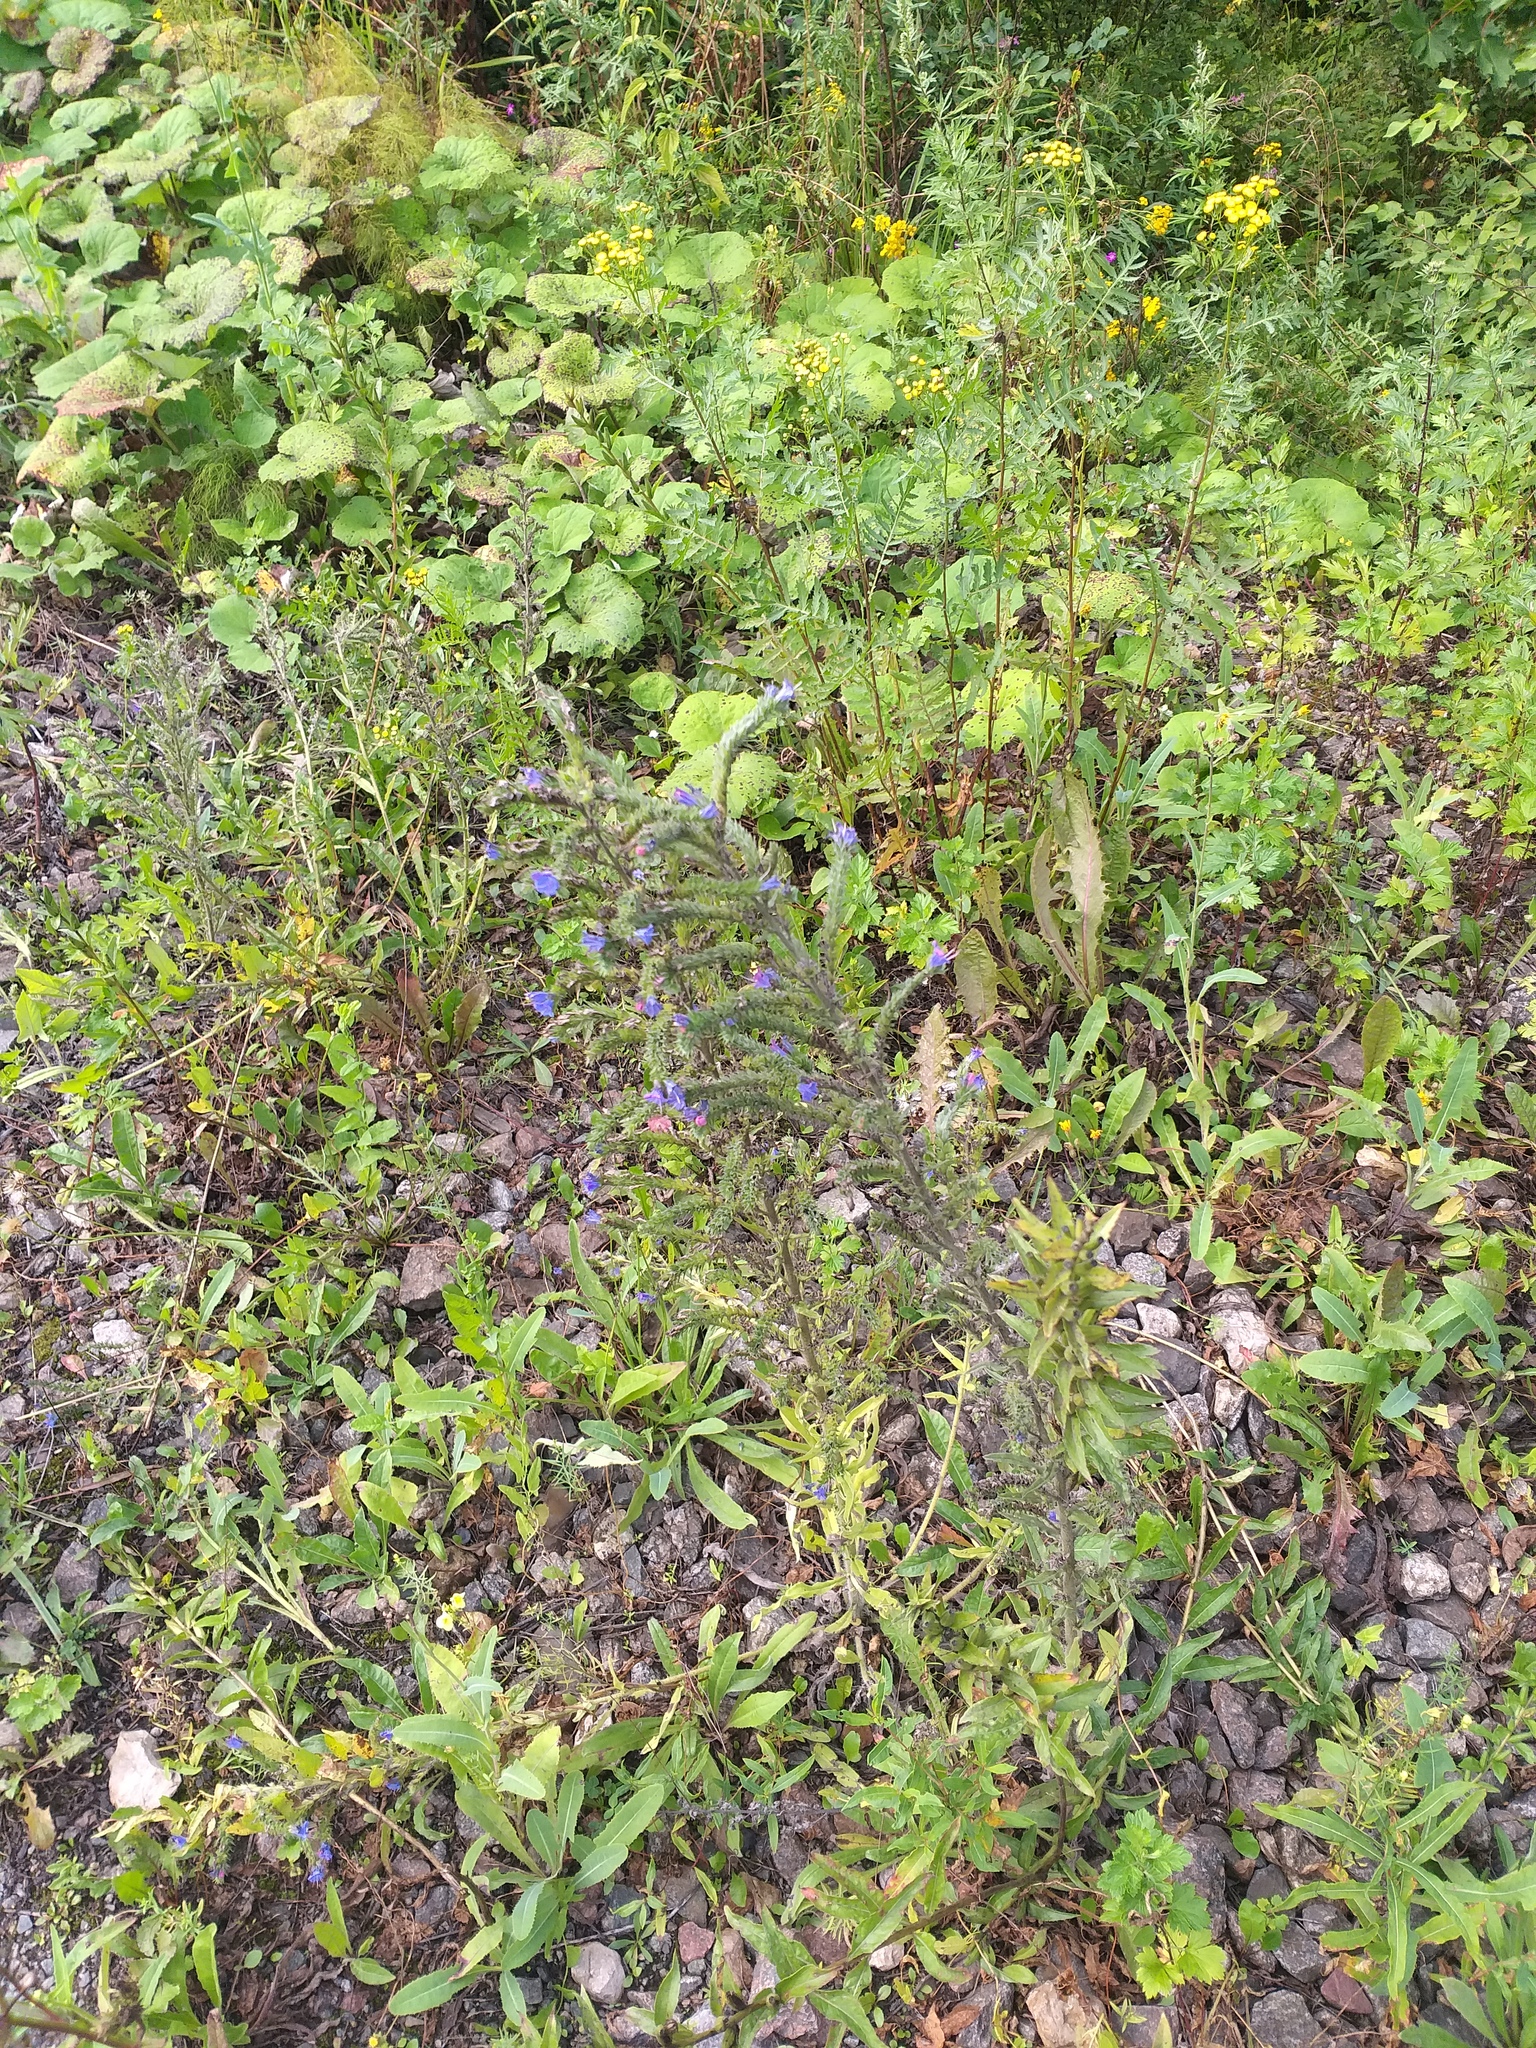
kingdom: Plantae
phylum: Tracheophyta
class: Magnoliopsida
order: Boraginales
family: Boraginaceae
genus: Echium
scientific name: Echium vulgare
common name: Common viper's bugloss
